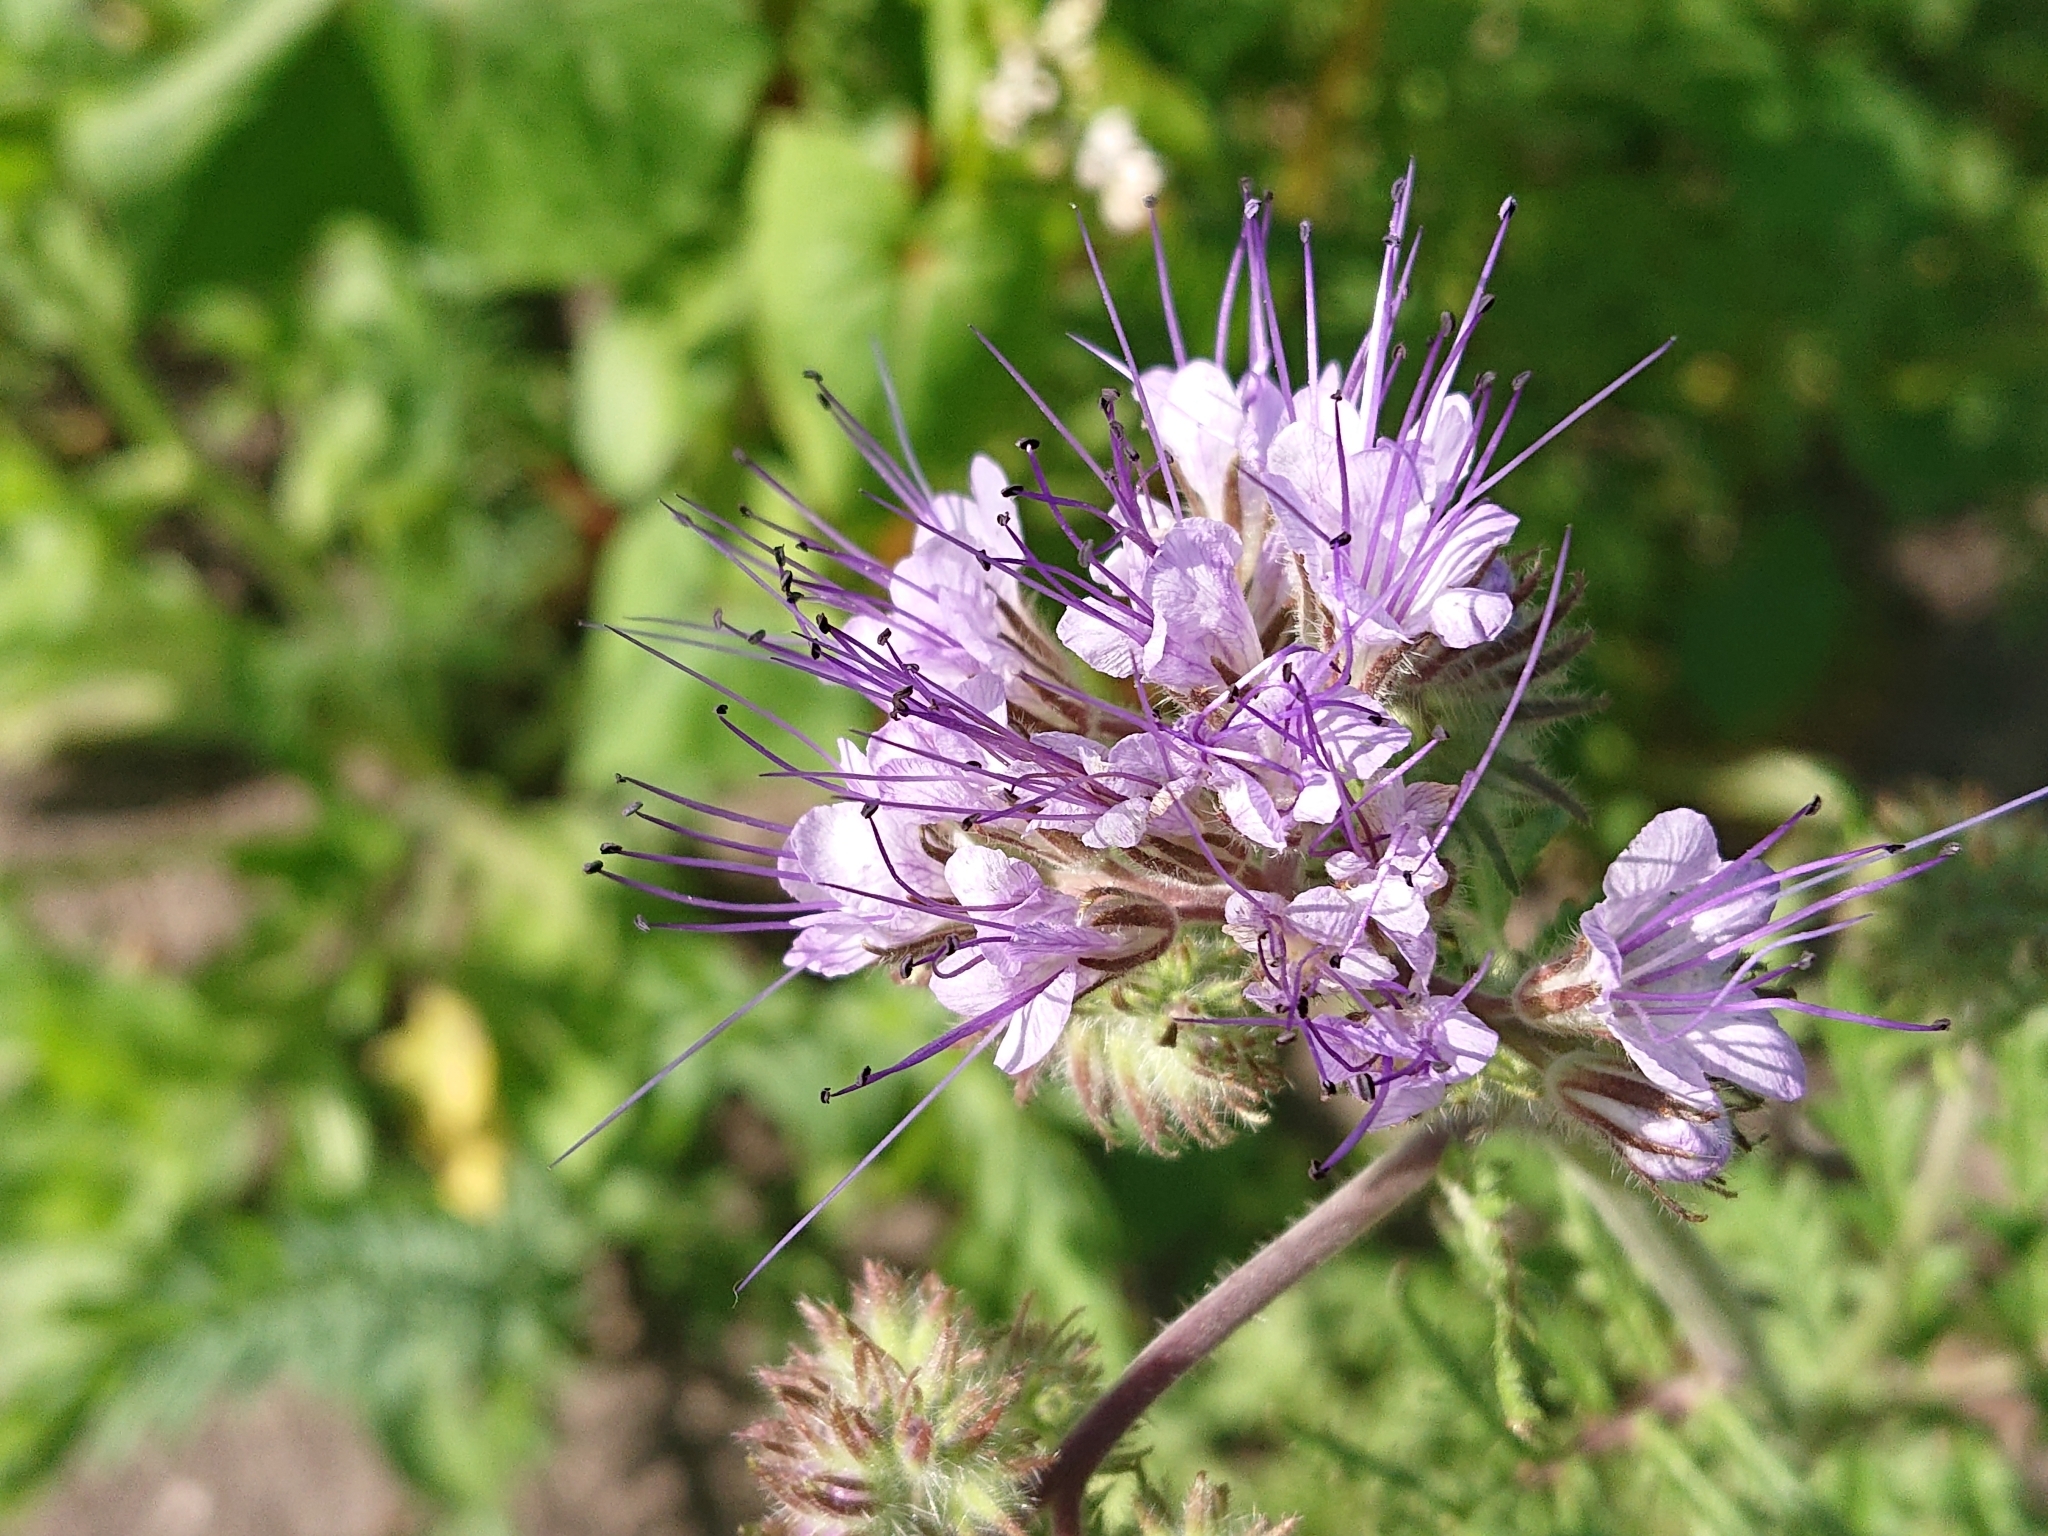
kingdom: Plantae
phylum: Tracheophyta
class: Magnoliopsida
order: Boraginales
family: Hydrophyllaceae
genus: Phacelia
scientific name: Phacelia tanacetifolia
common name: Phacelia
